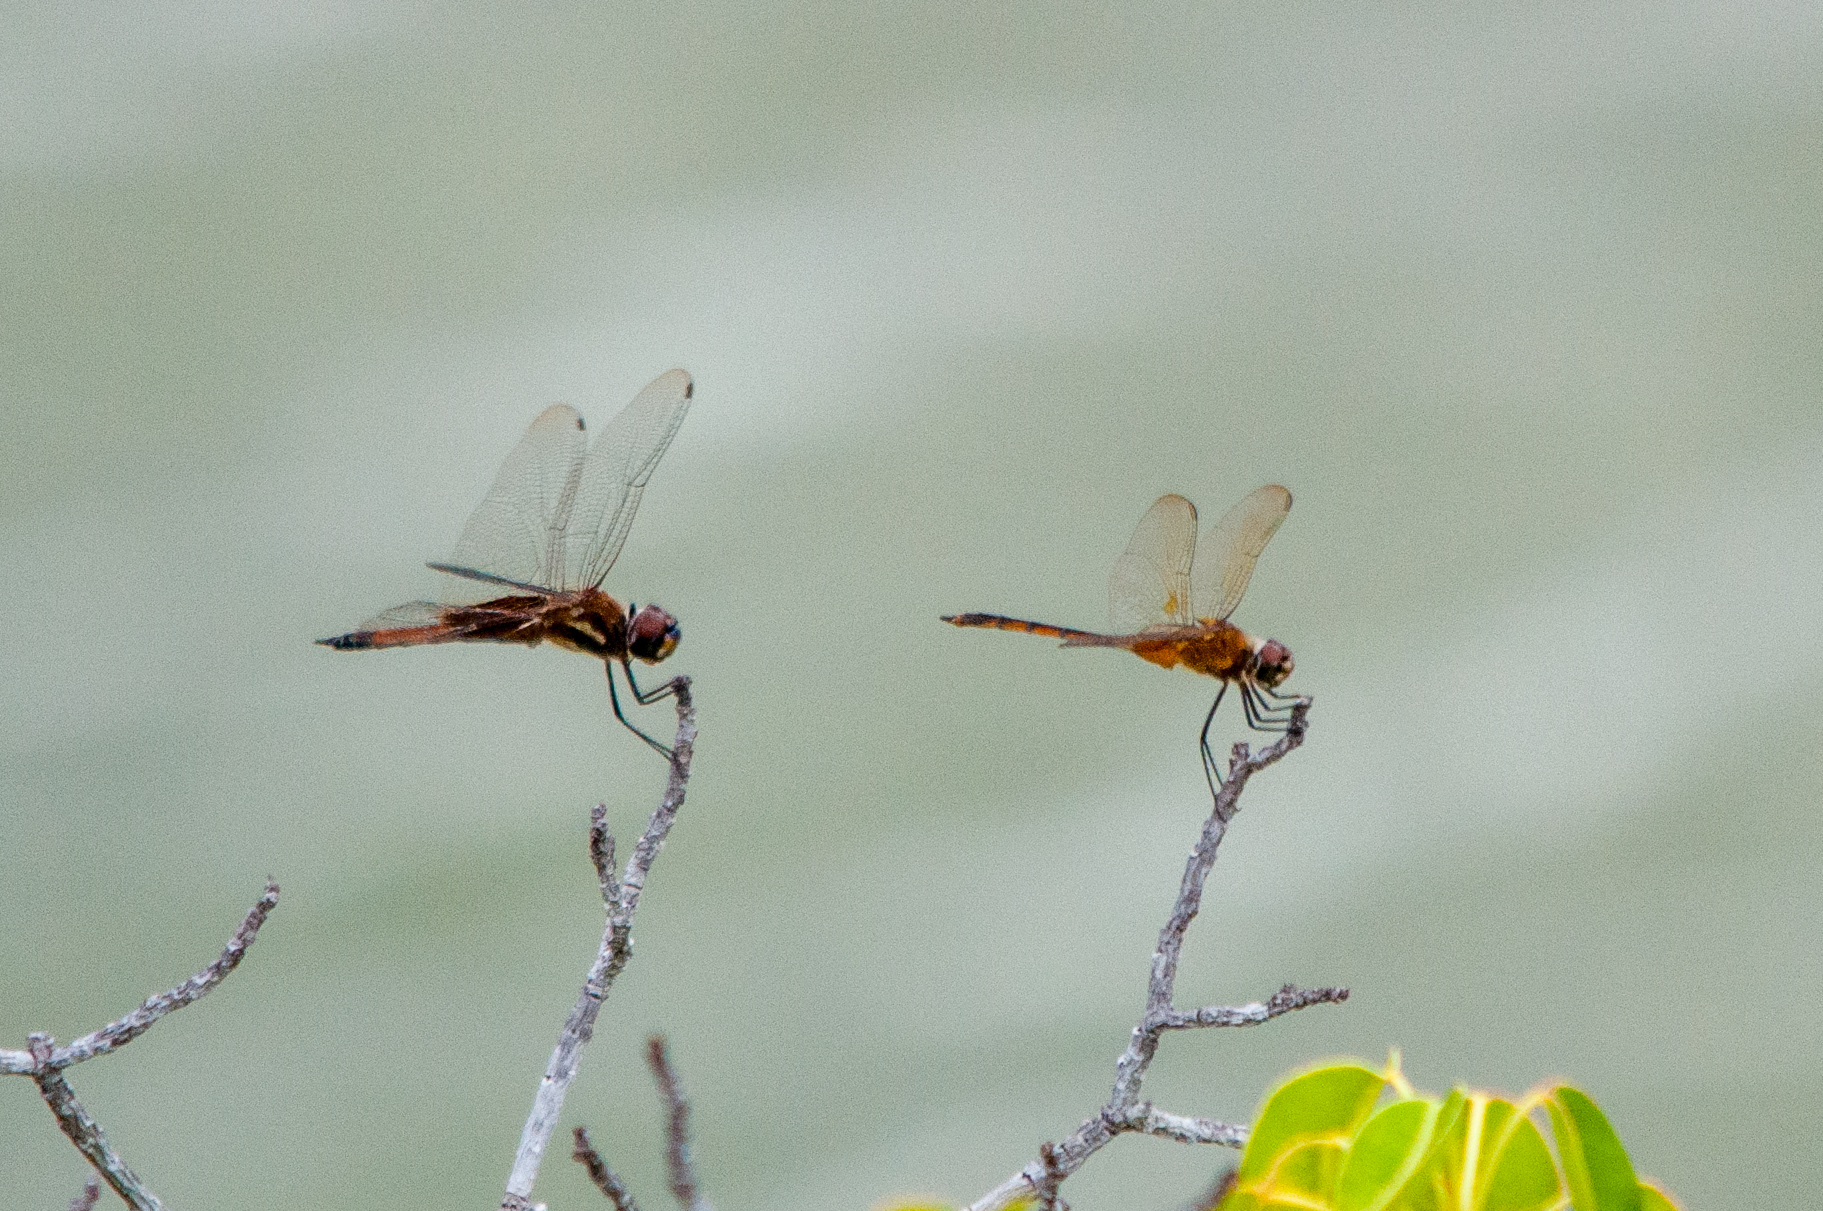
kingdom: Animalia
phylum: Arthropoda
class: Insecta
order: Odonata
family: Libellulidae
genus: Tramea
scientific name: Tramea darwini
